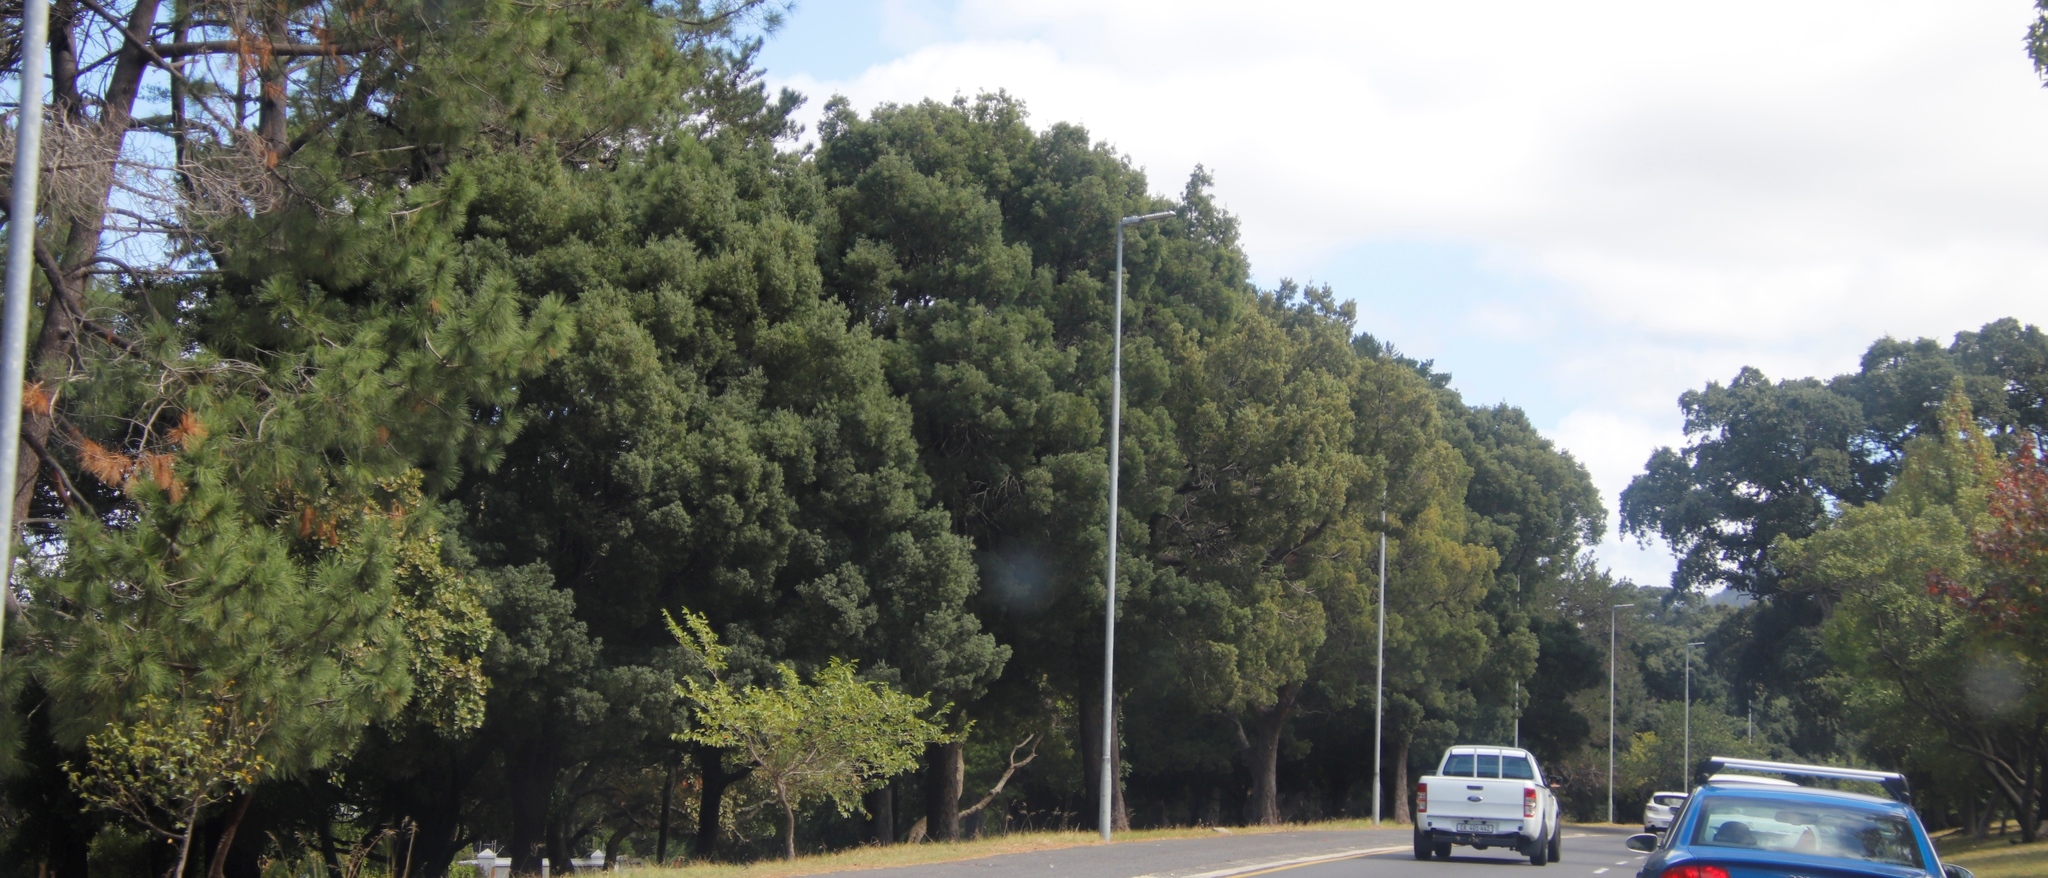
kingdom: Plantae
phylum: Tracheophyta
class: Magnoliopsida
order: Fabales
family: Fabaceae
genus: Acacia
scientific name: Acacia melanoxylon
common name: Blackwood
